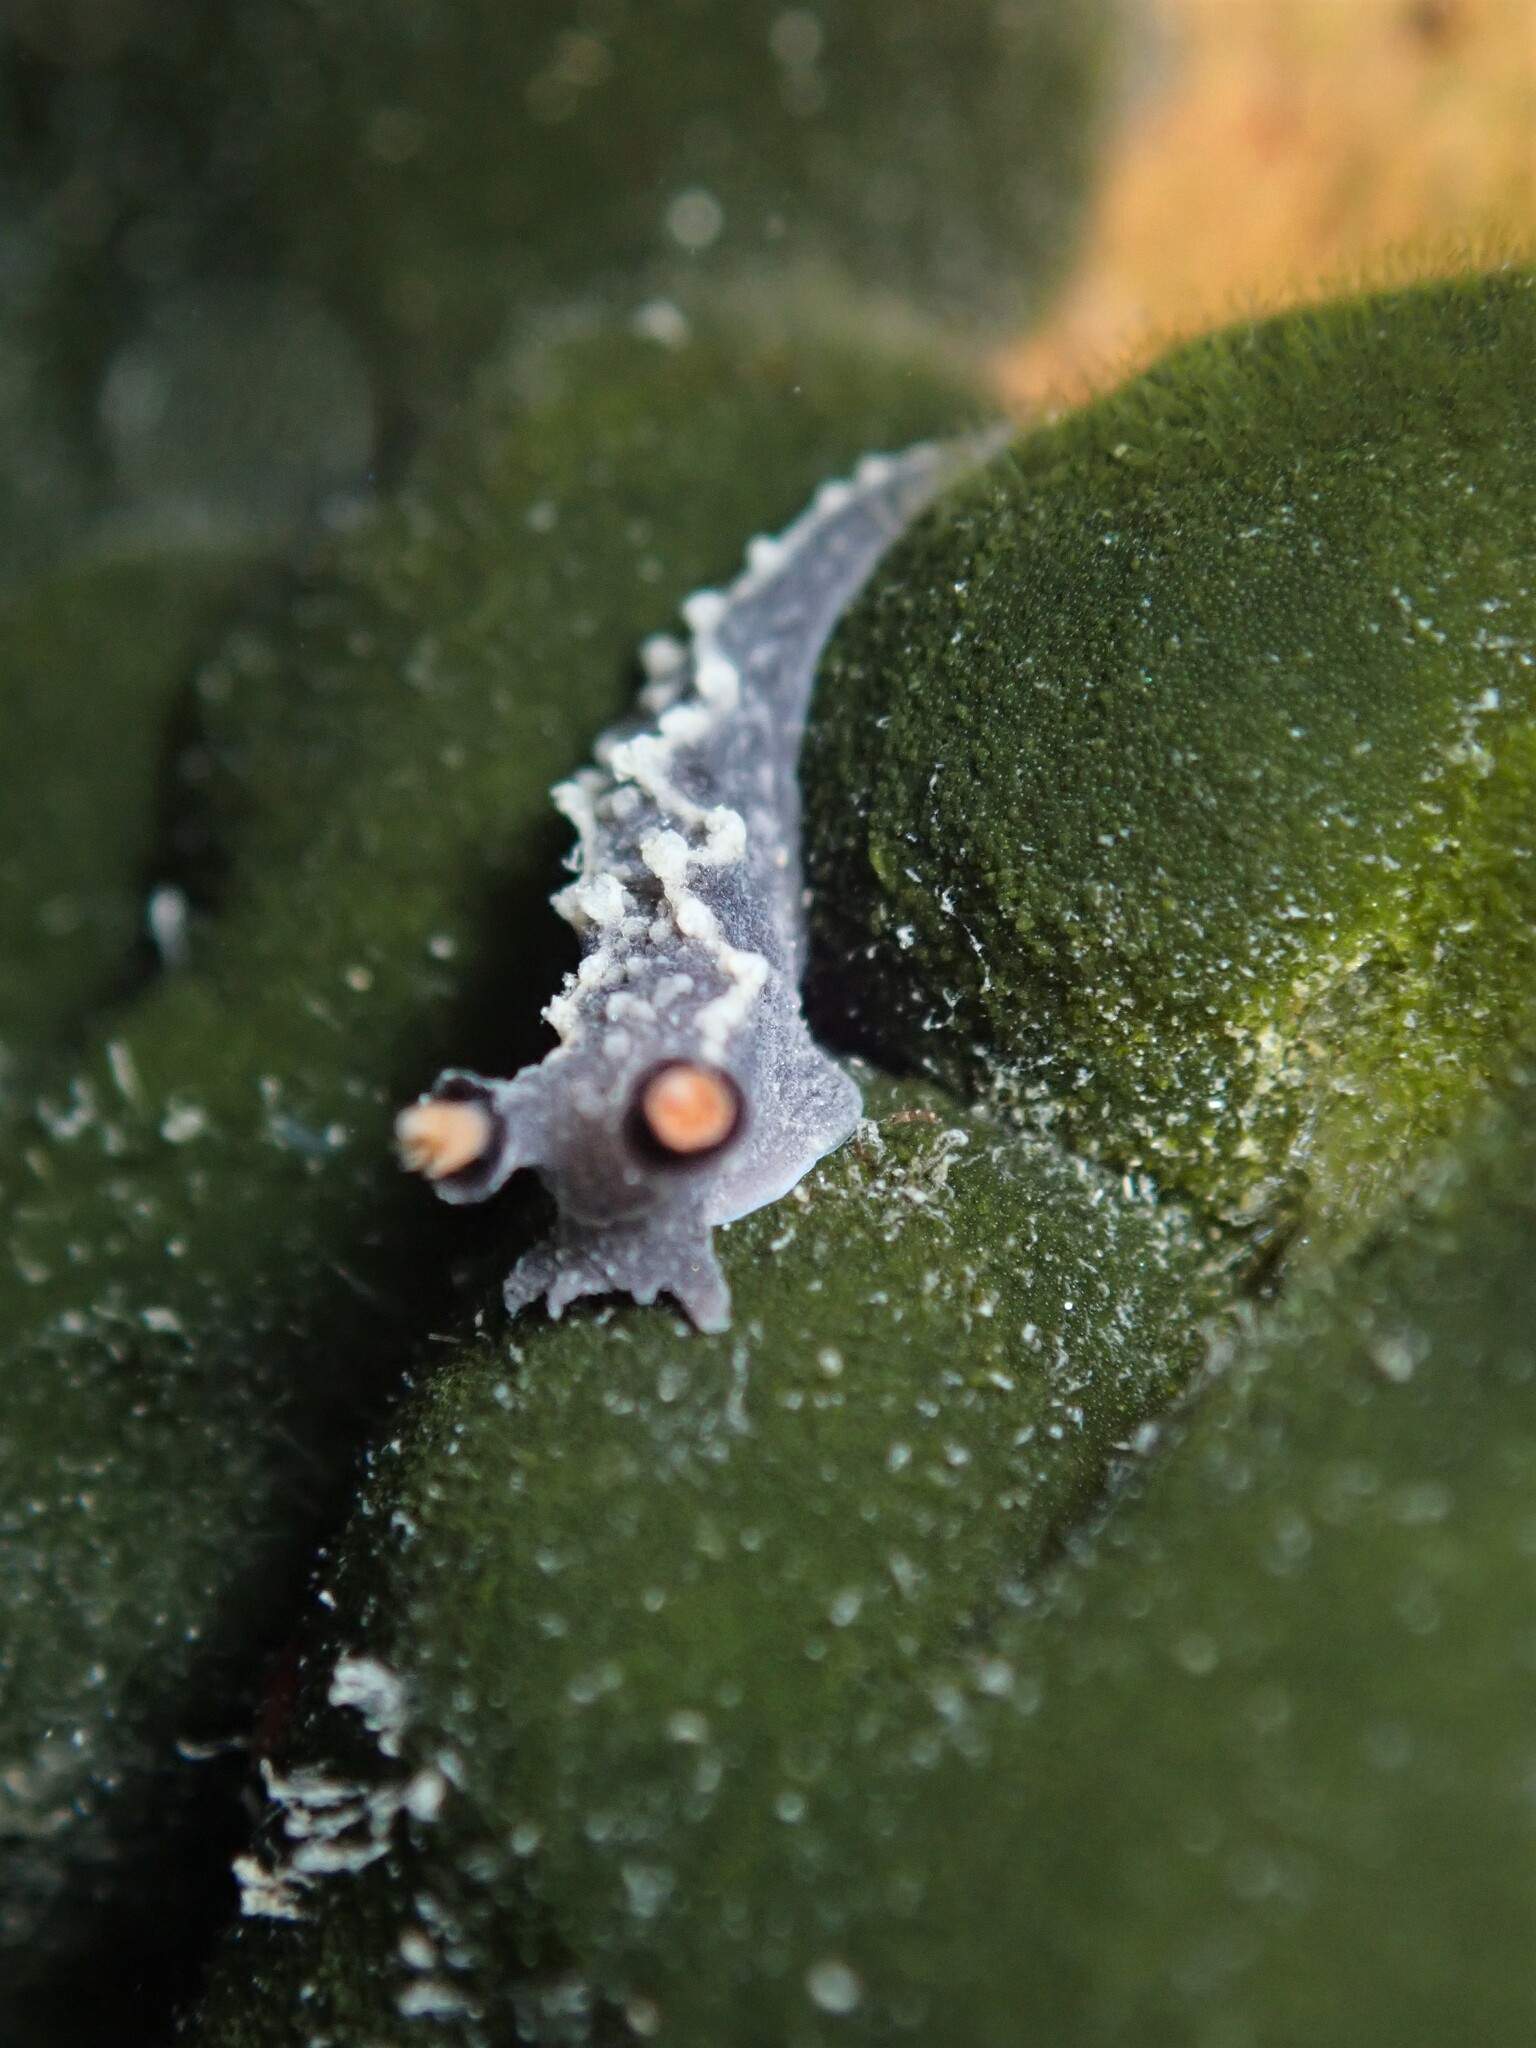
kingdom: Animalia
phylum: Mollusca
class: Gastropoda
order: Nudibranchia
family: Tritoniidae
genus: Tritonia
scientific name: Tritonia flemingi
